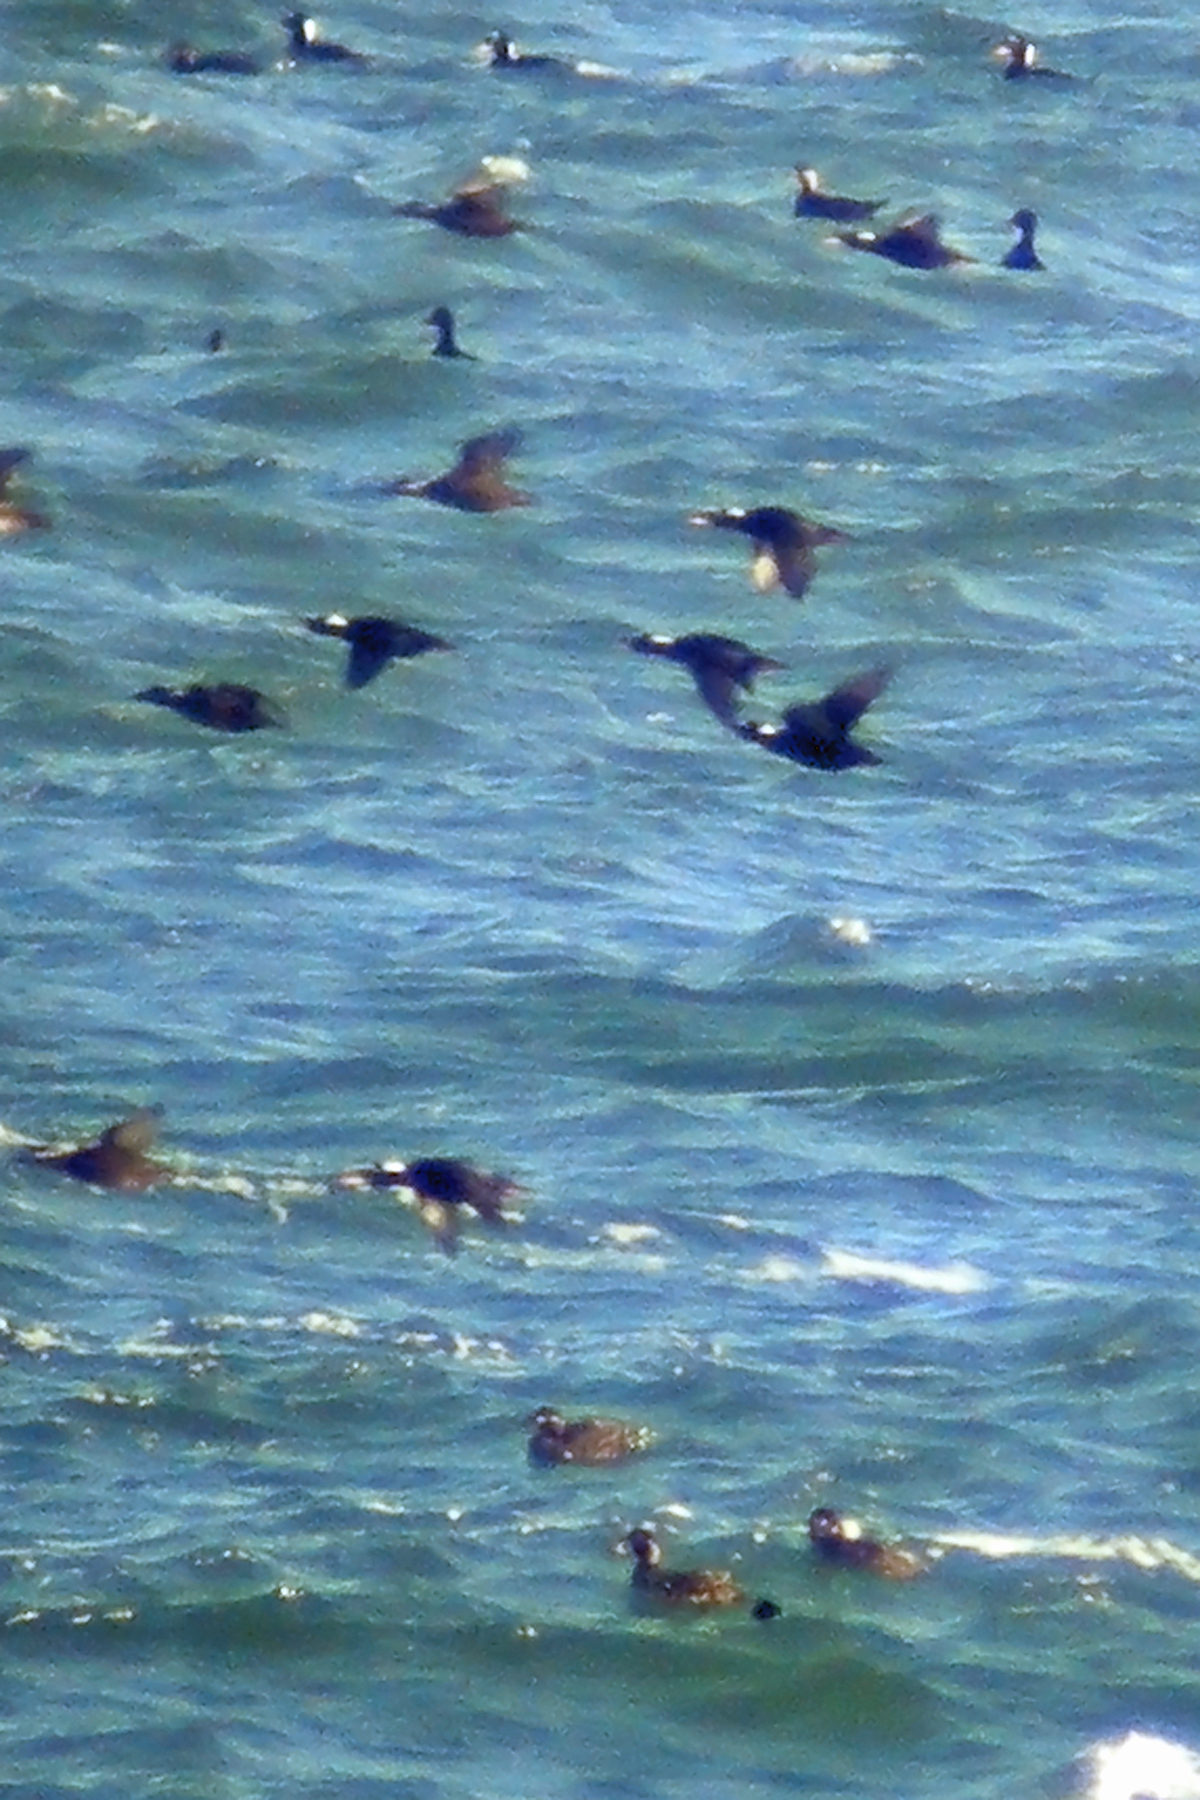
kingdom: Animalia
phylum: Chordata
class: Aves
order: Anseriformes
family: Anatidae
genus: Melanitta
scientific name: Melanitta perspicillata
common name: Surf scoter
